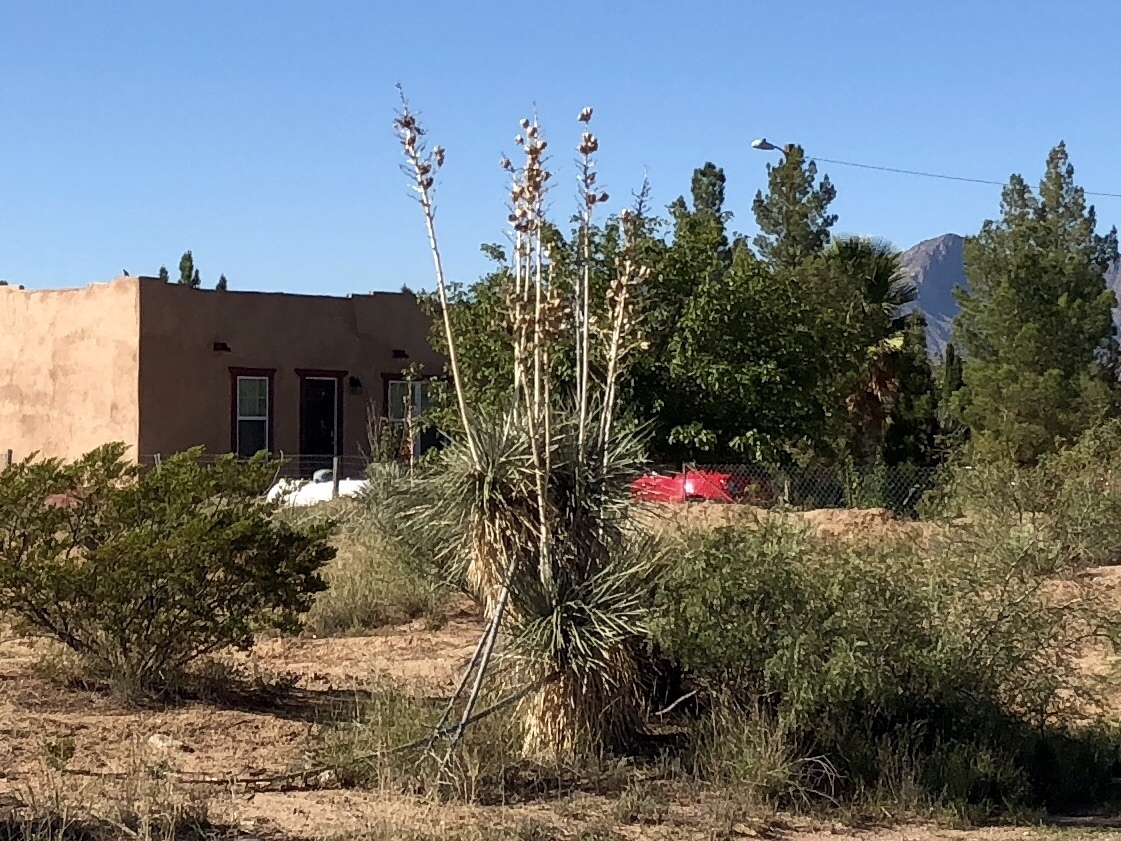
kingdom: Plantae
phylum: Tracheophyta
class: Liliopsida
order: Asparagales
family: Asparagaceae
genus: Yucca
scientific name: Yucca elata
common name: Palmella
